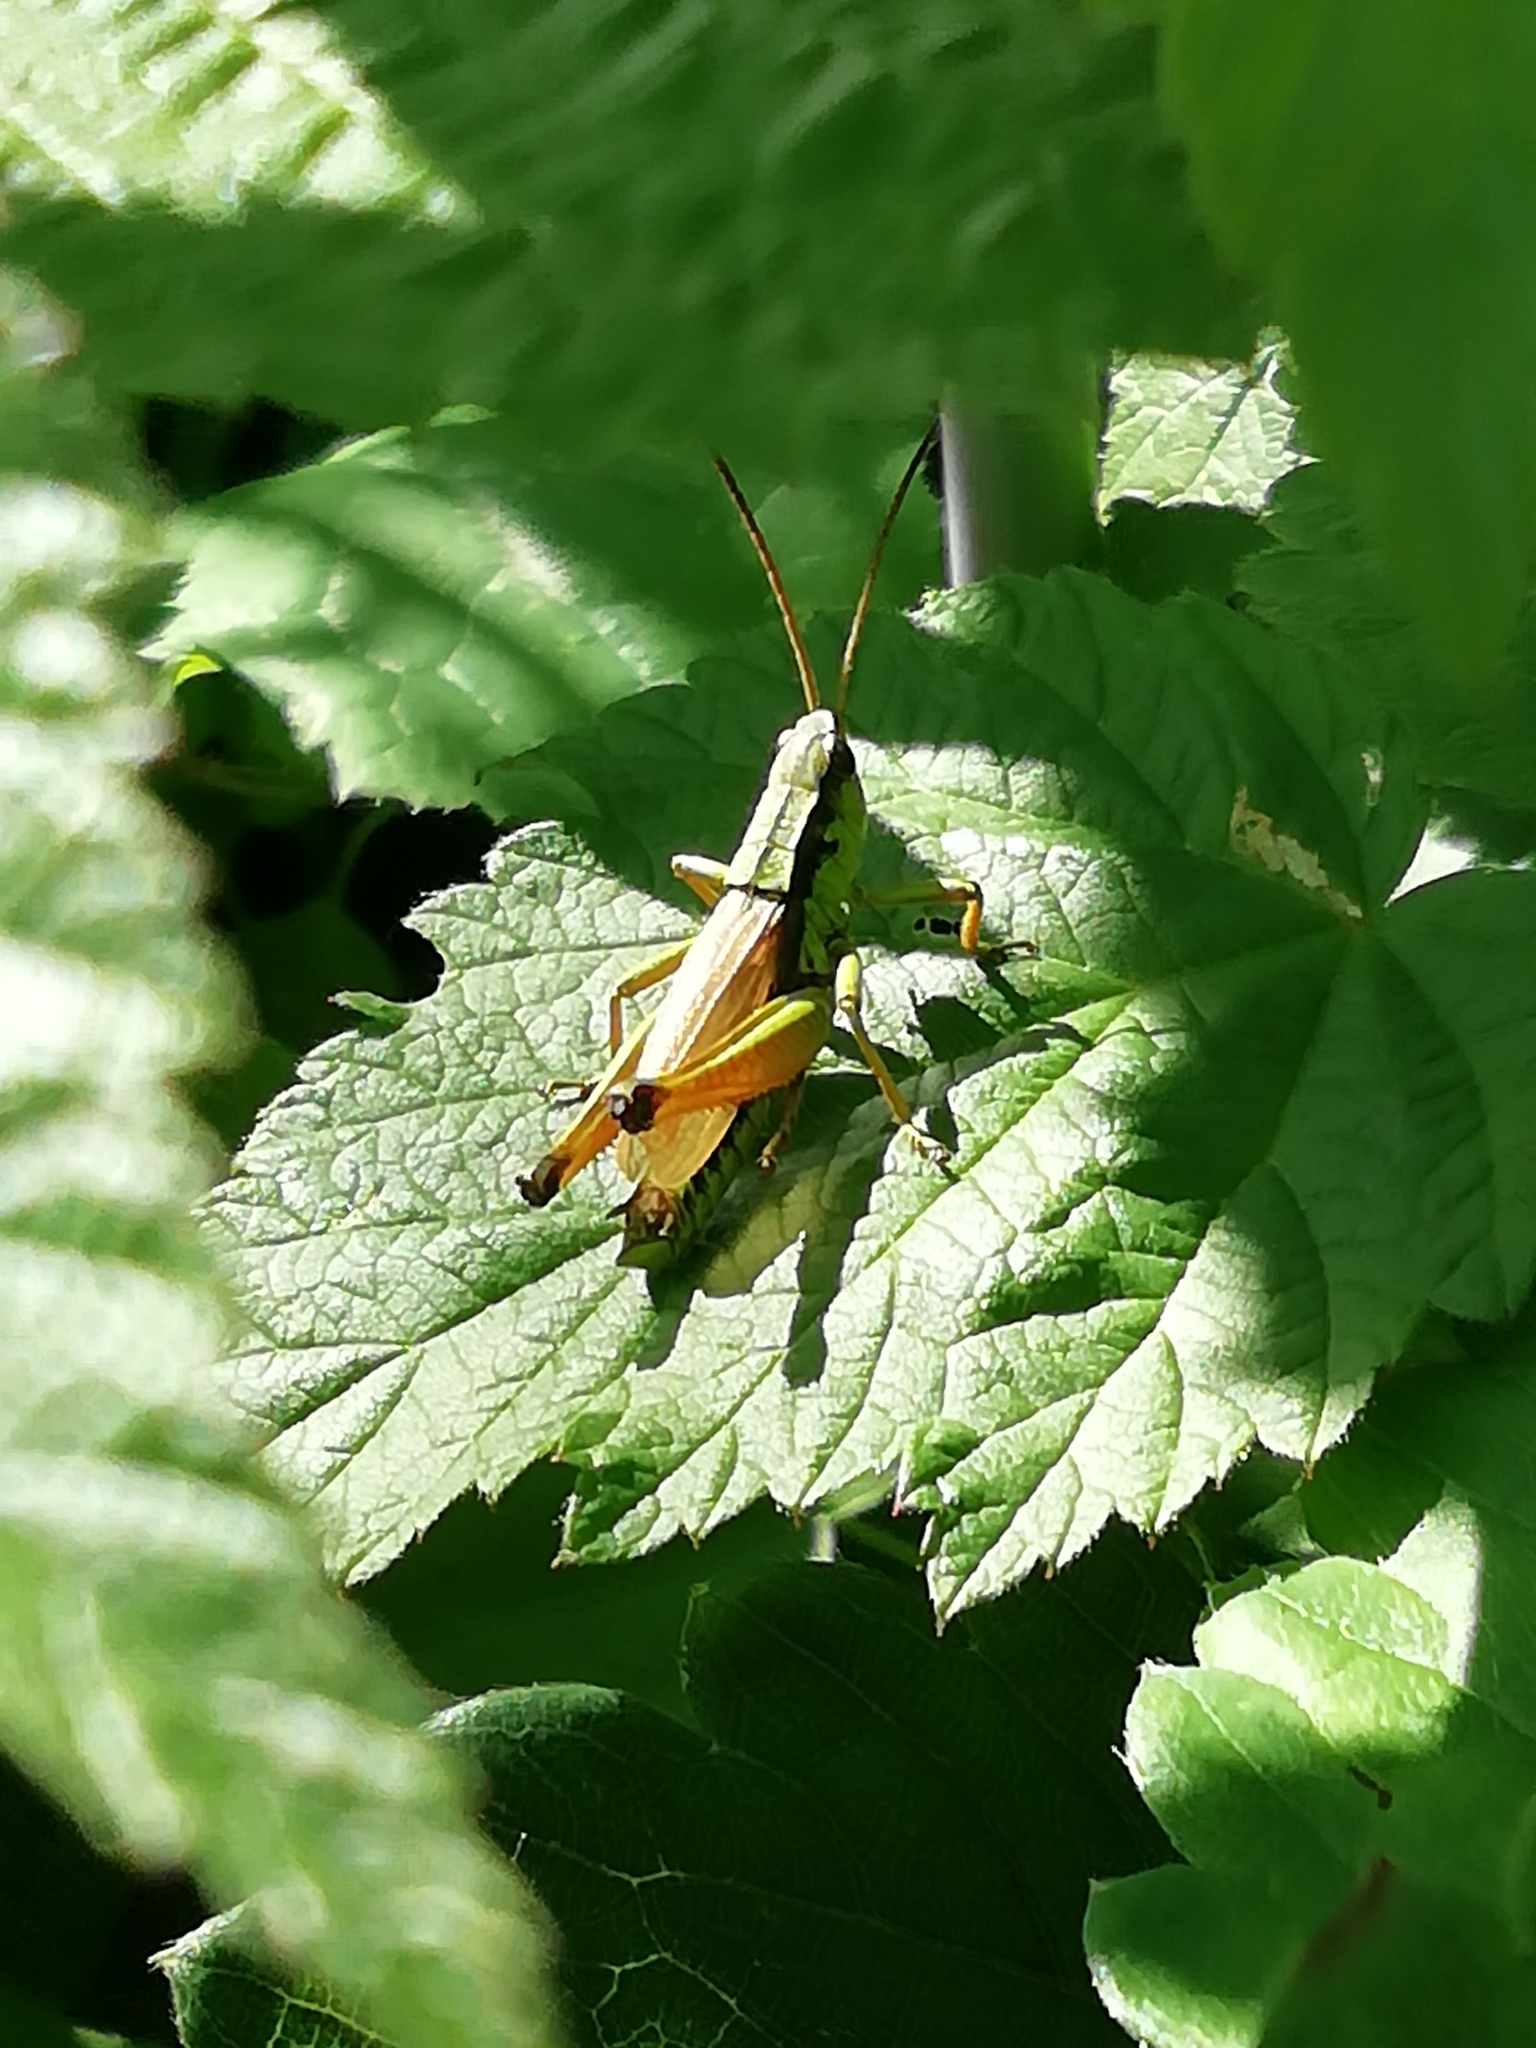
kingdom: Animalia
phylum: Arthropoda
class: Insecta
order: Orthoptera
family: Acrididae
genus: Podismopsis
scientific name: Podismopsis poppiusi
